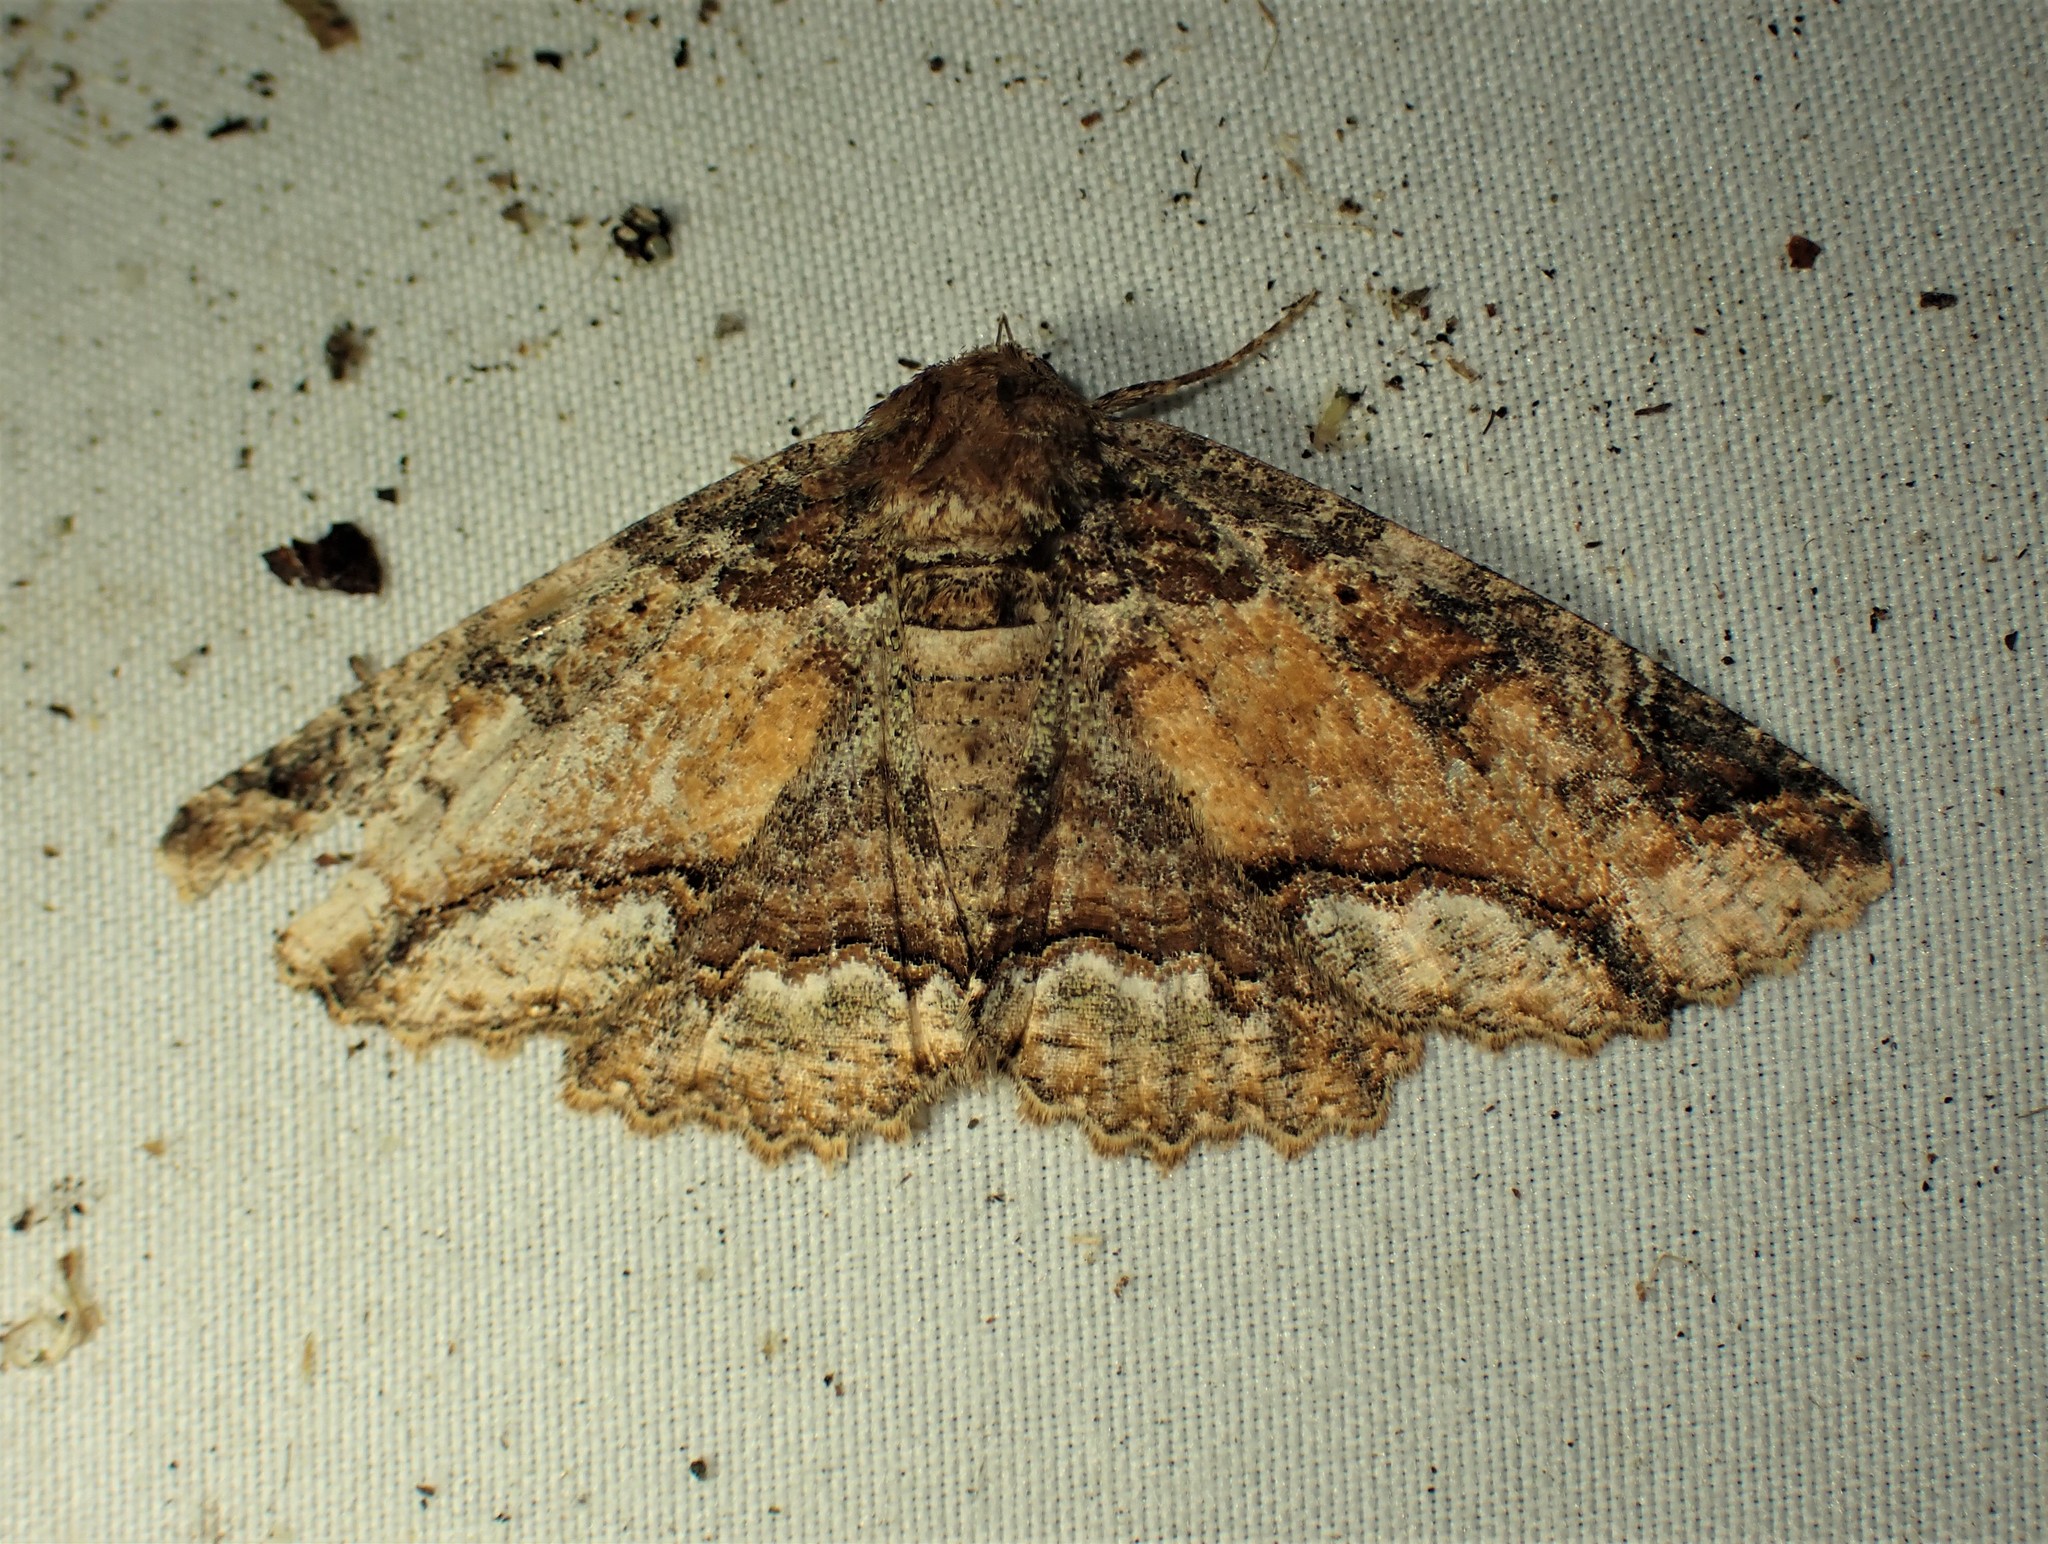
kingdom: Animalia
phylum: Arthropoda
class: Insecta
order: Lepidoptera
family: Erebidae
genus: Zale
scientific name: Zale minerea
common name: Colorful zale moth
